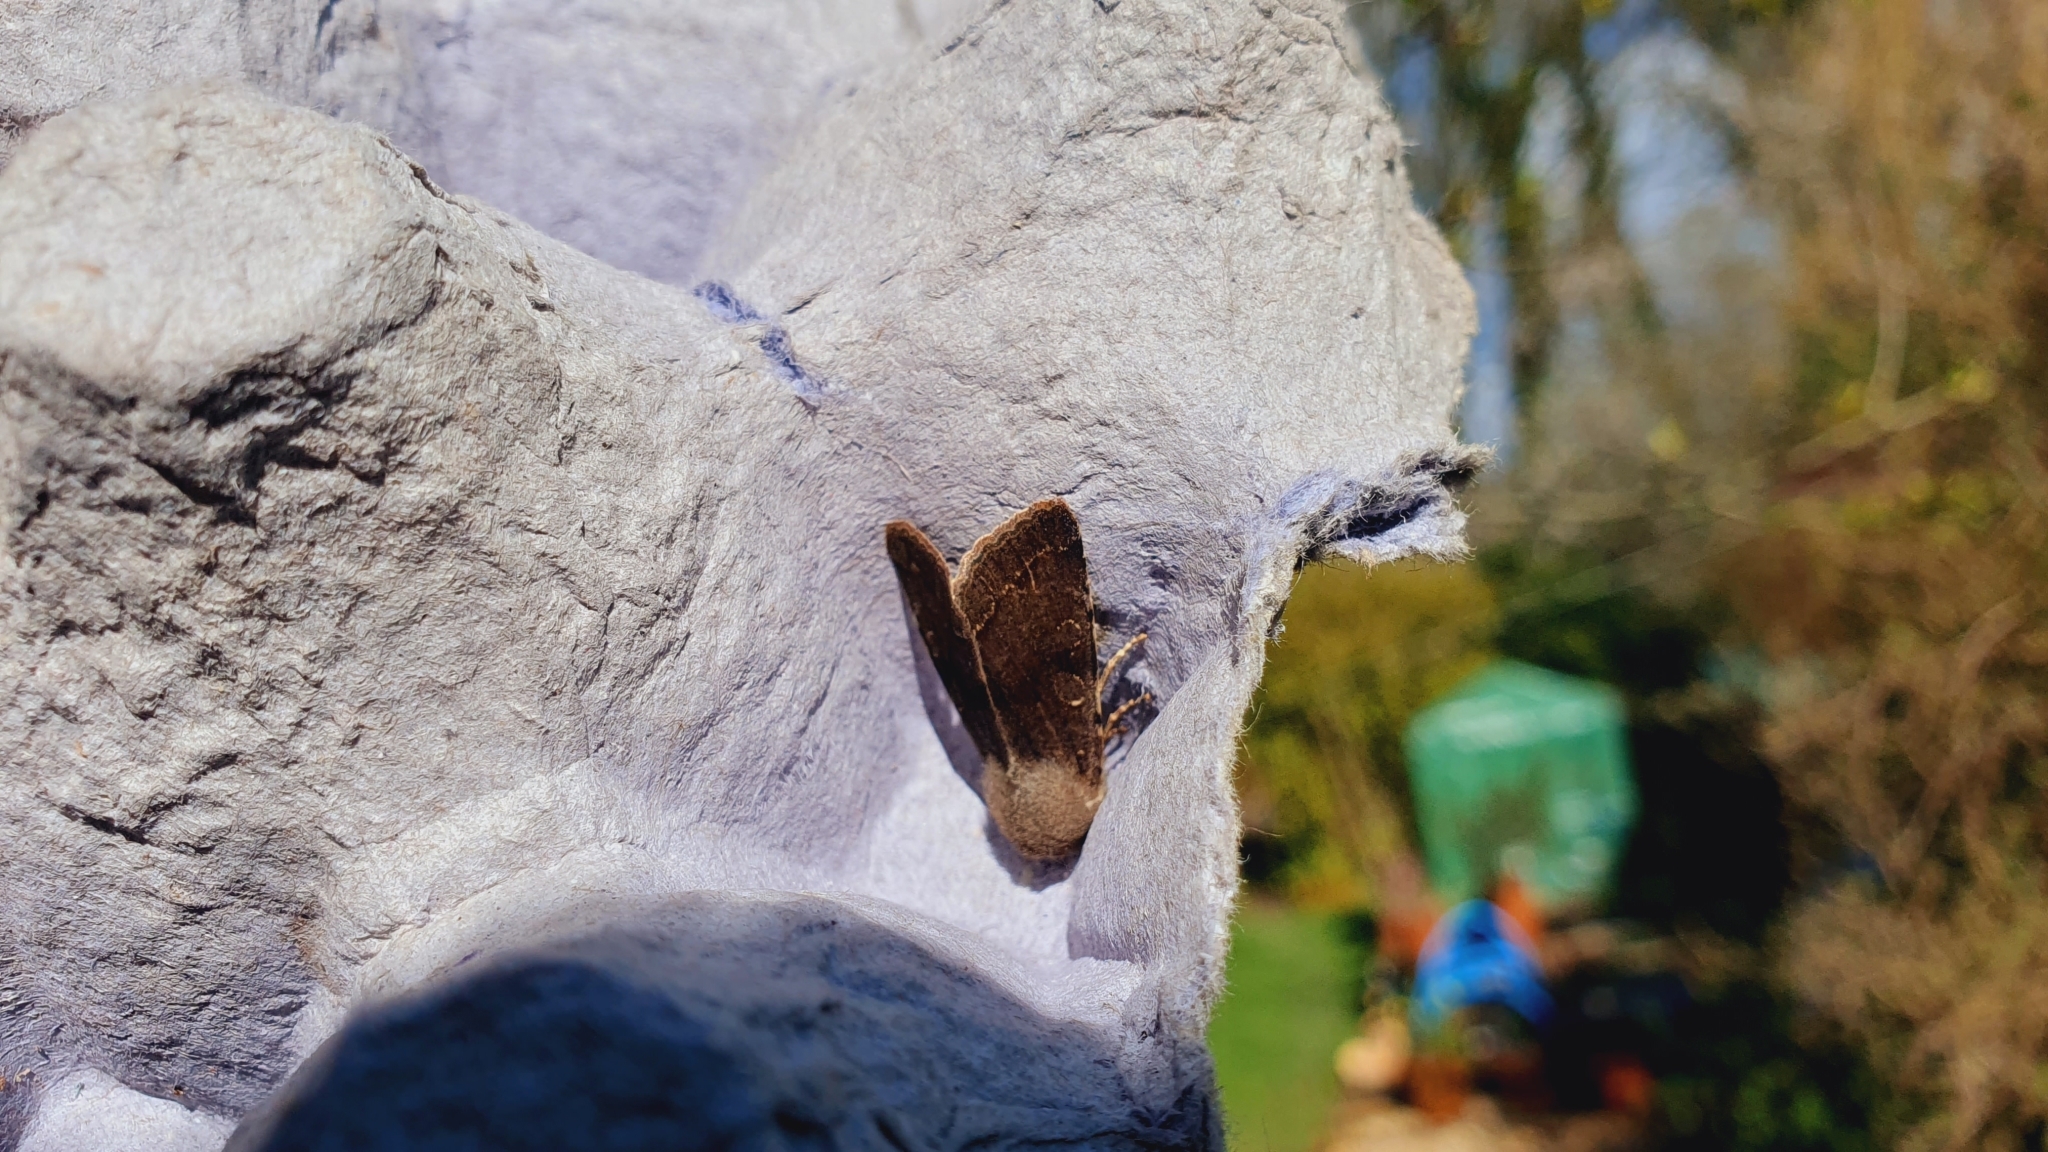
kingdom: Animalia
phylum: Arthropoda
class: Insecta
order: Lepidoptera
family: Noctuidae
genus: Orthosia
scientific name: Orthosia incerta
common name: Clouded drab
